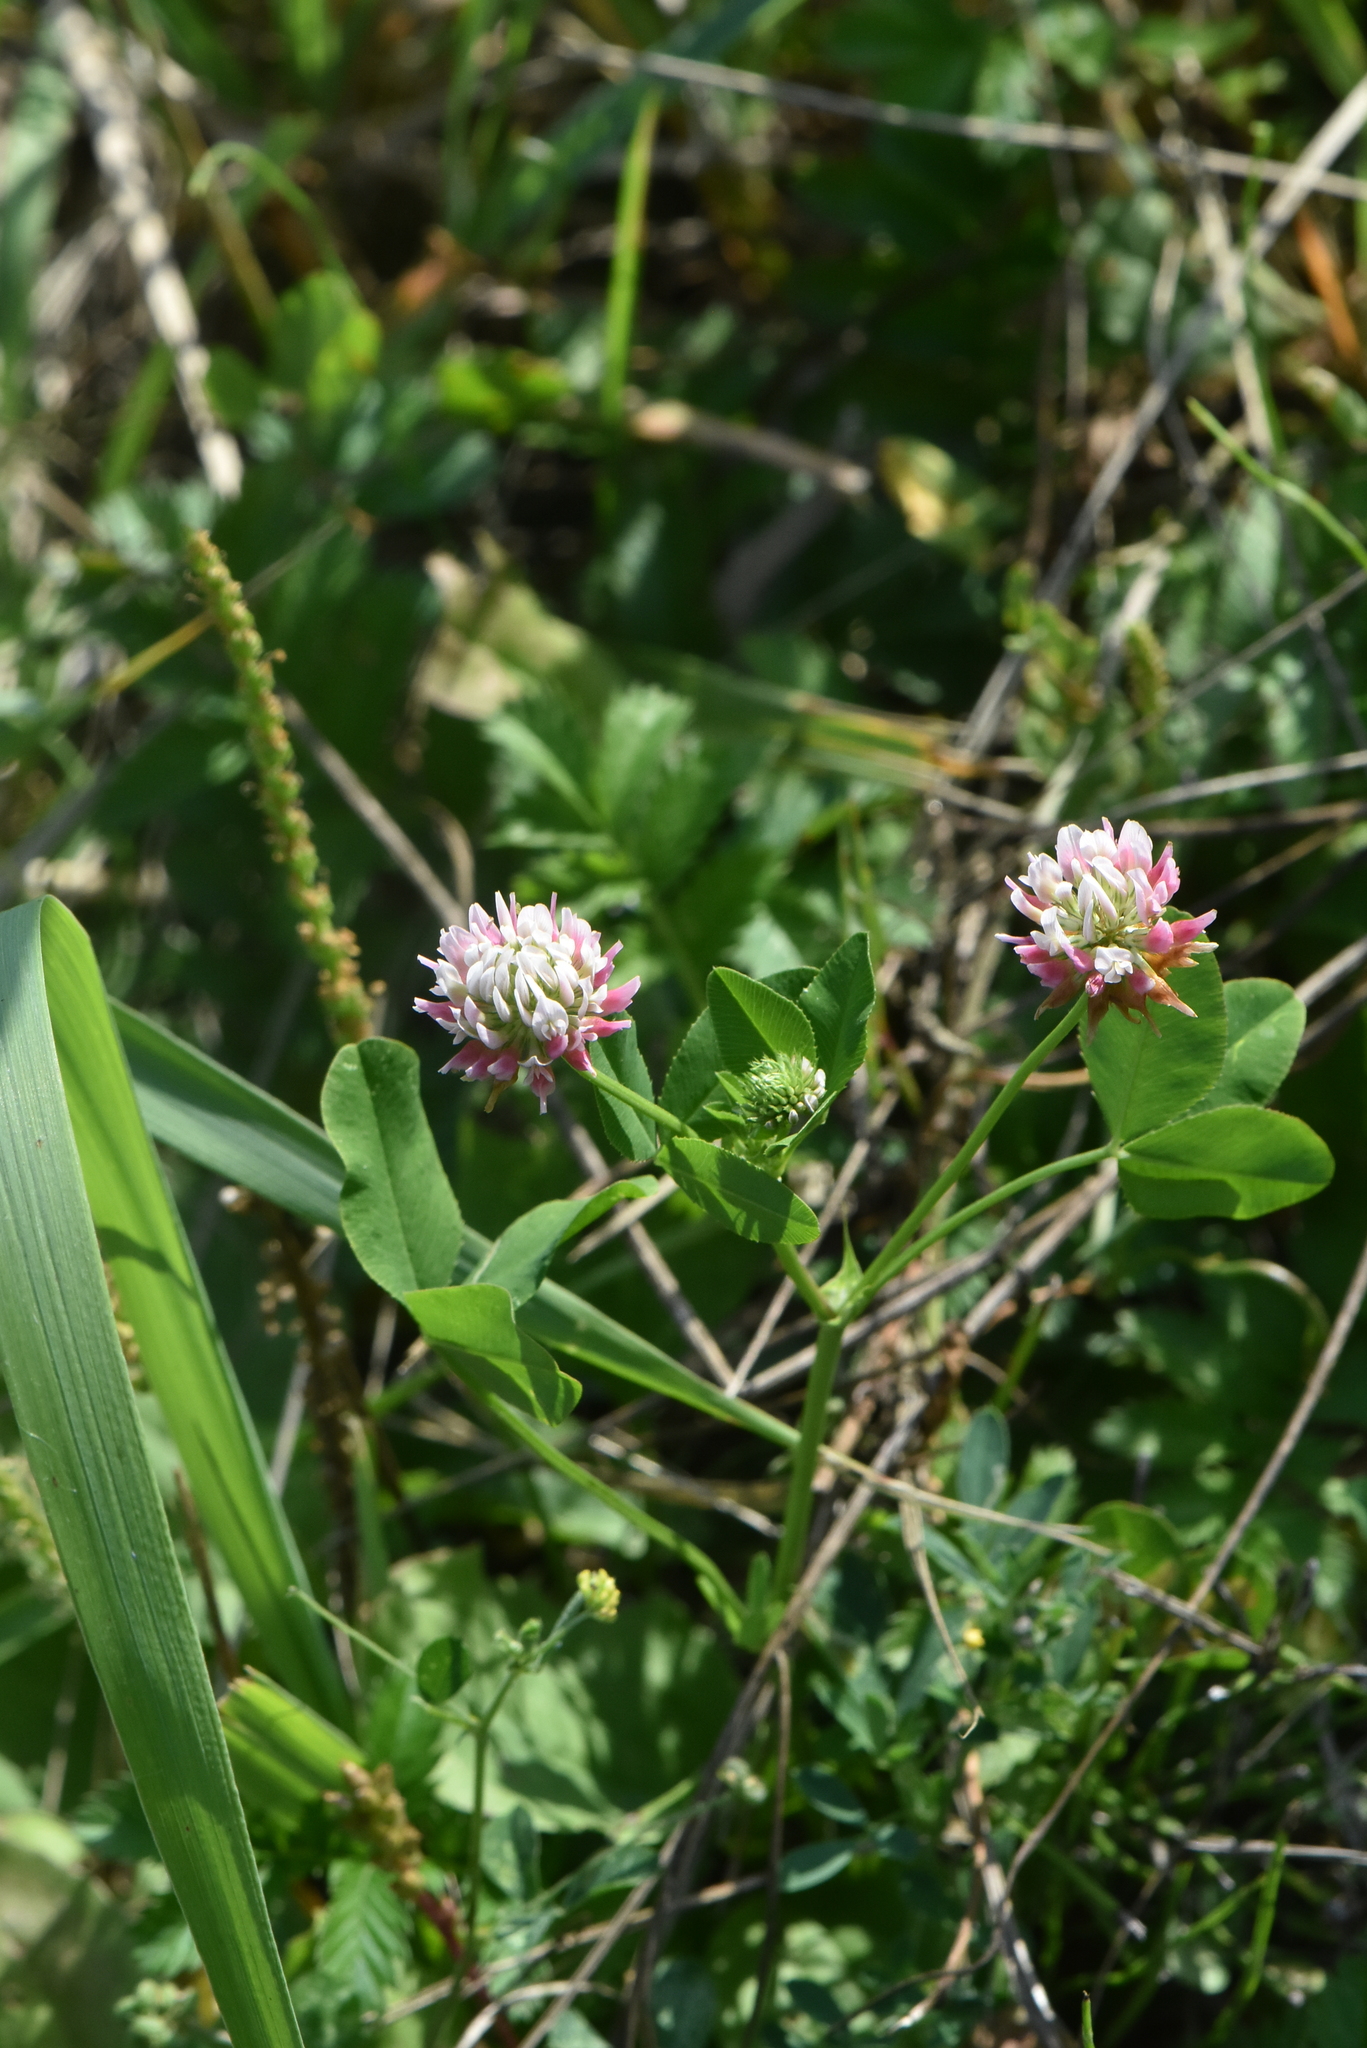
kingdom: Plantae
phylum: Tracheophyta
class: Magnoliopsida
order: Fabales
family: Fabaceae
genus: Trifolium
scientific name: Trifolium hybridum
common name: Alsike clover
